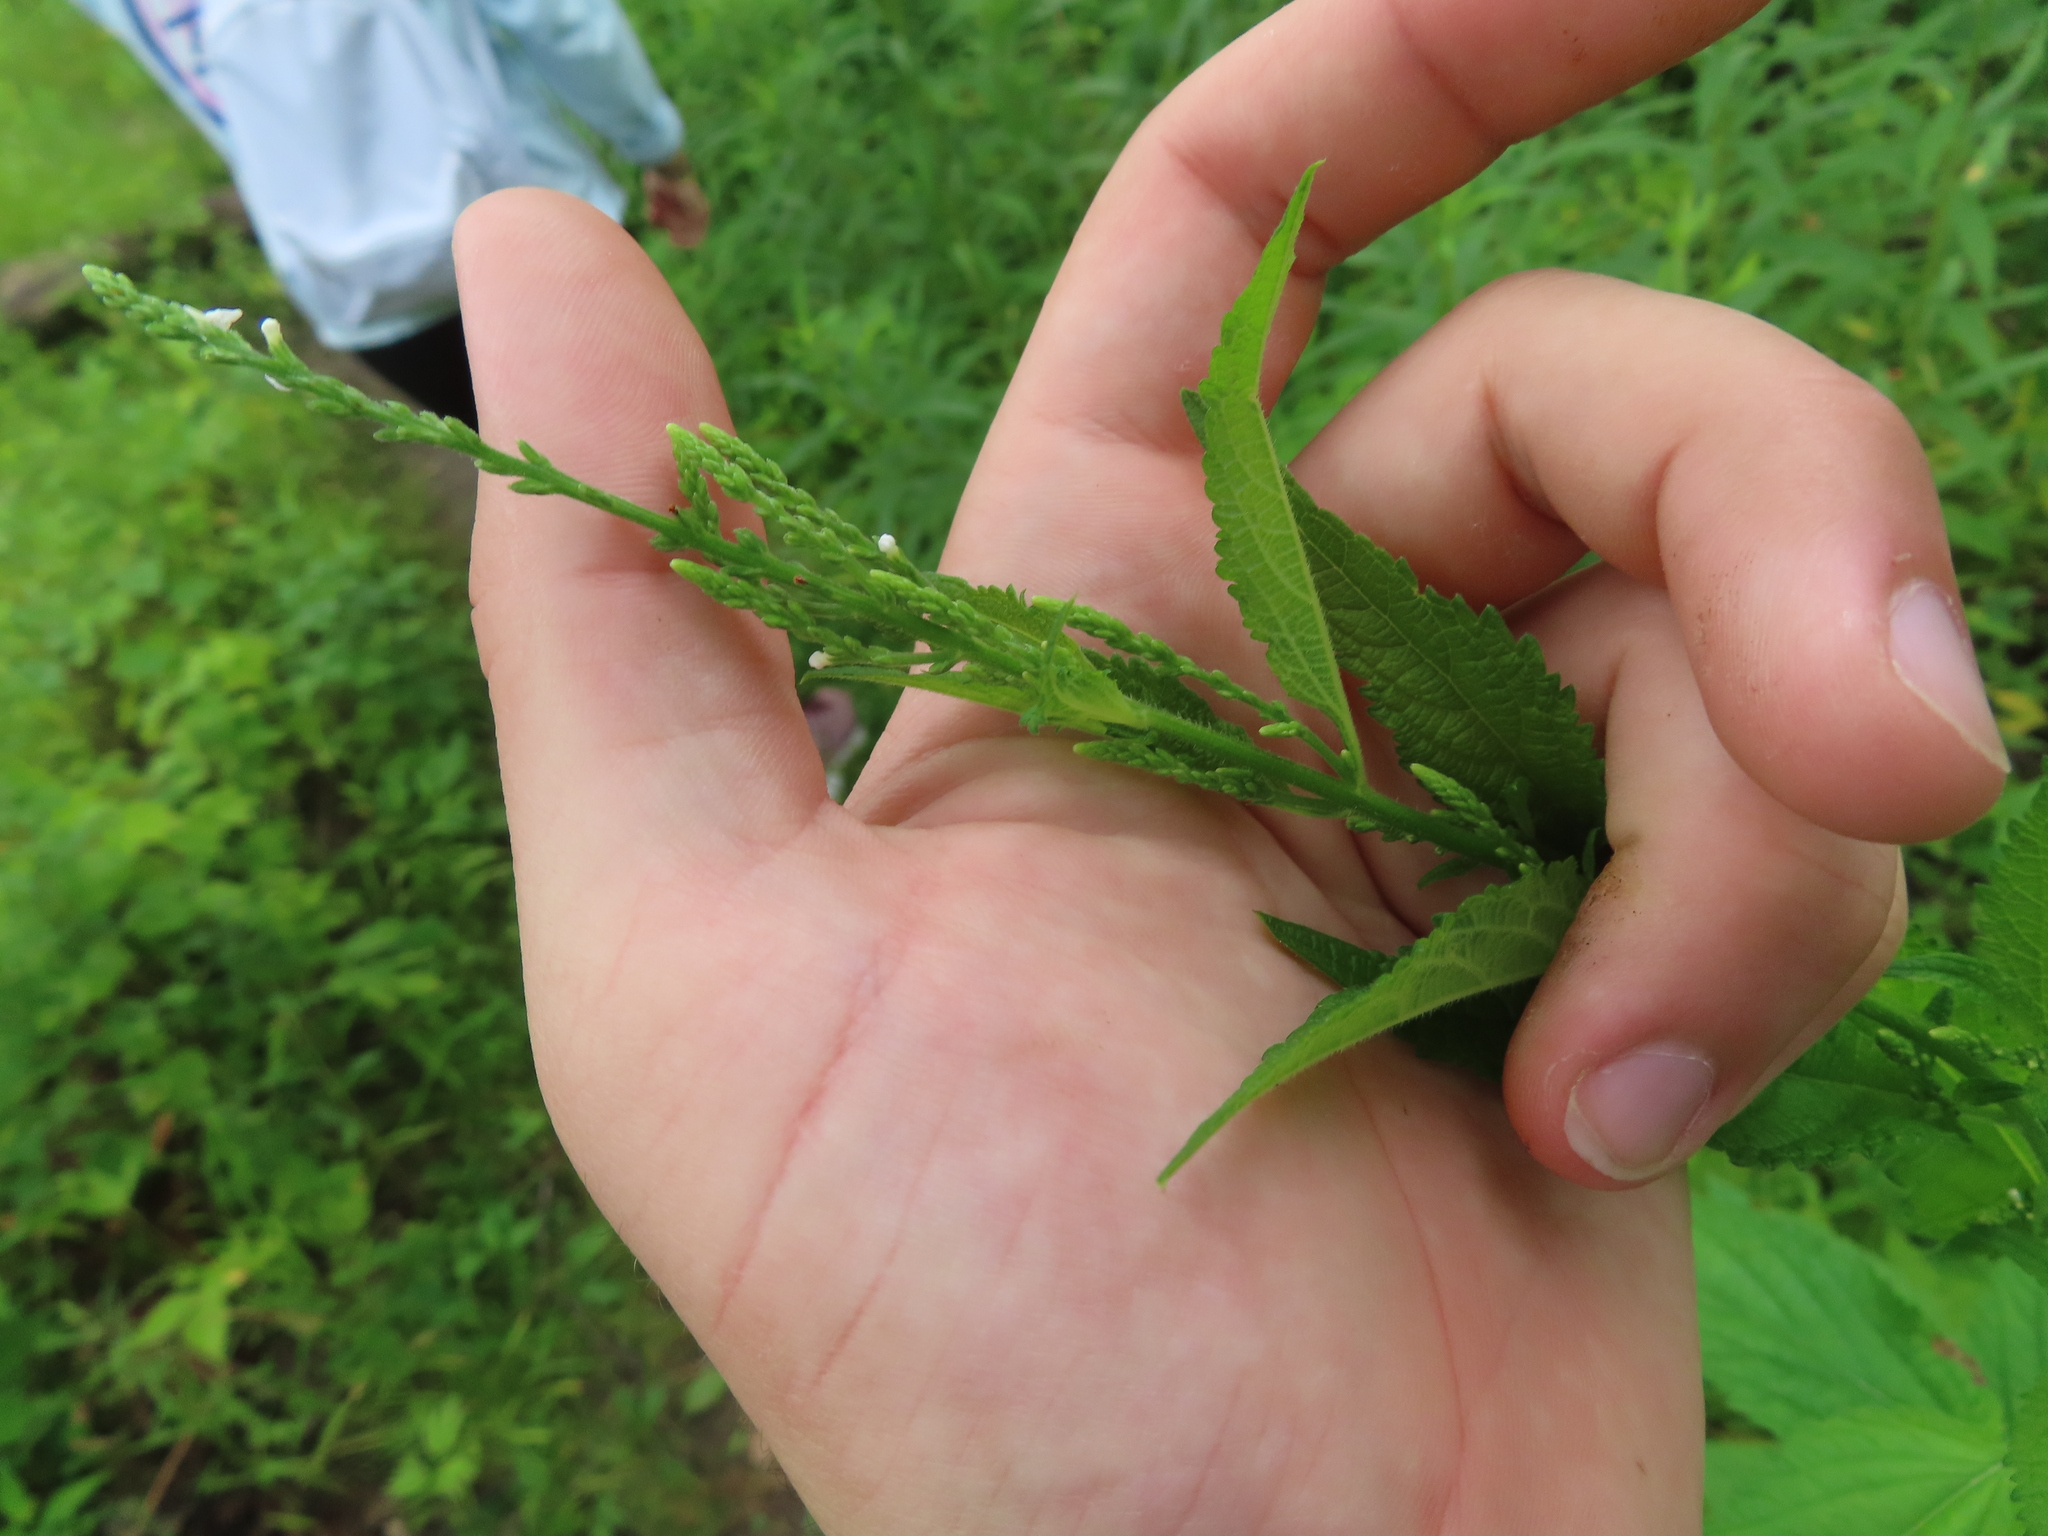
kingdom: Plantae
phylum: Tracheophyta
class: Magnoliopsida
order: Lamiales
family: Verbenaceae
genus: Verbena
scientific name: Verbena urticifolia
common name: Nettle-leaved vervain
